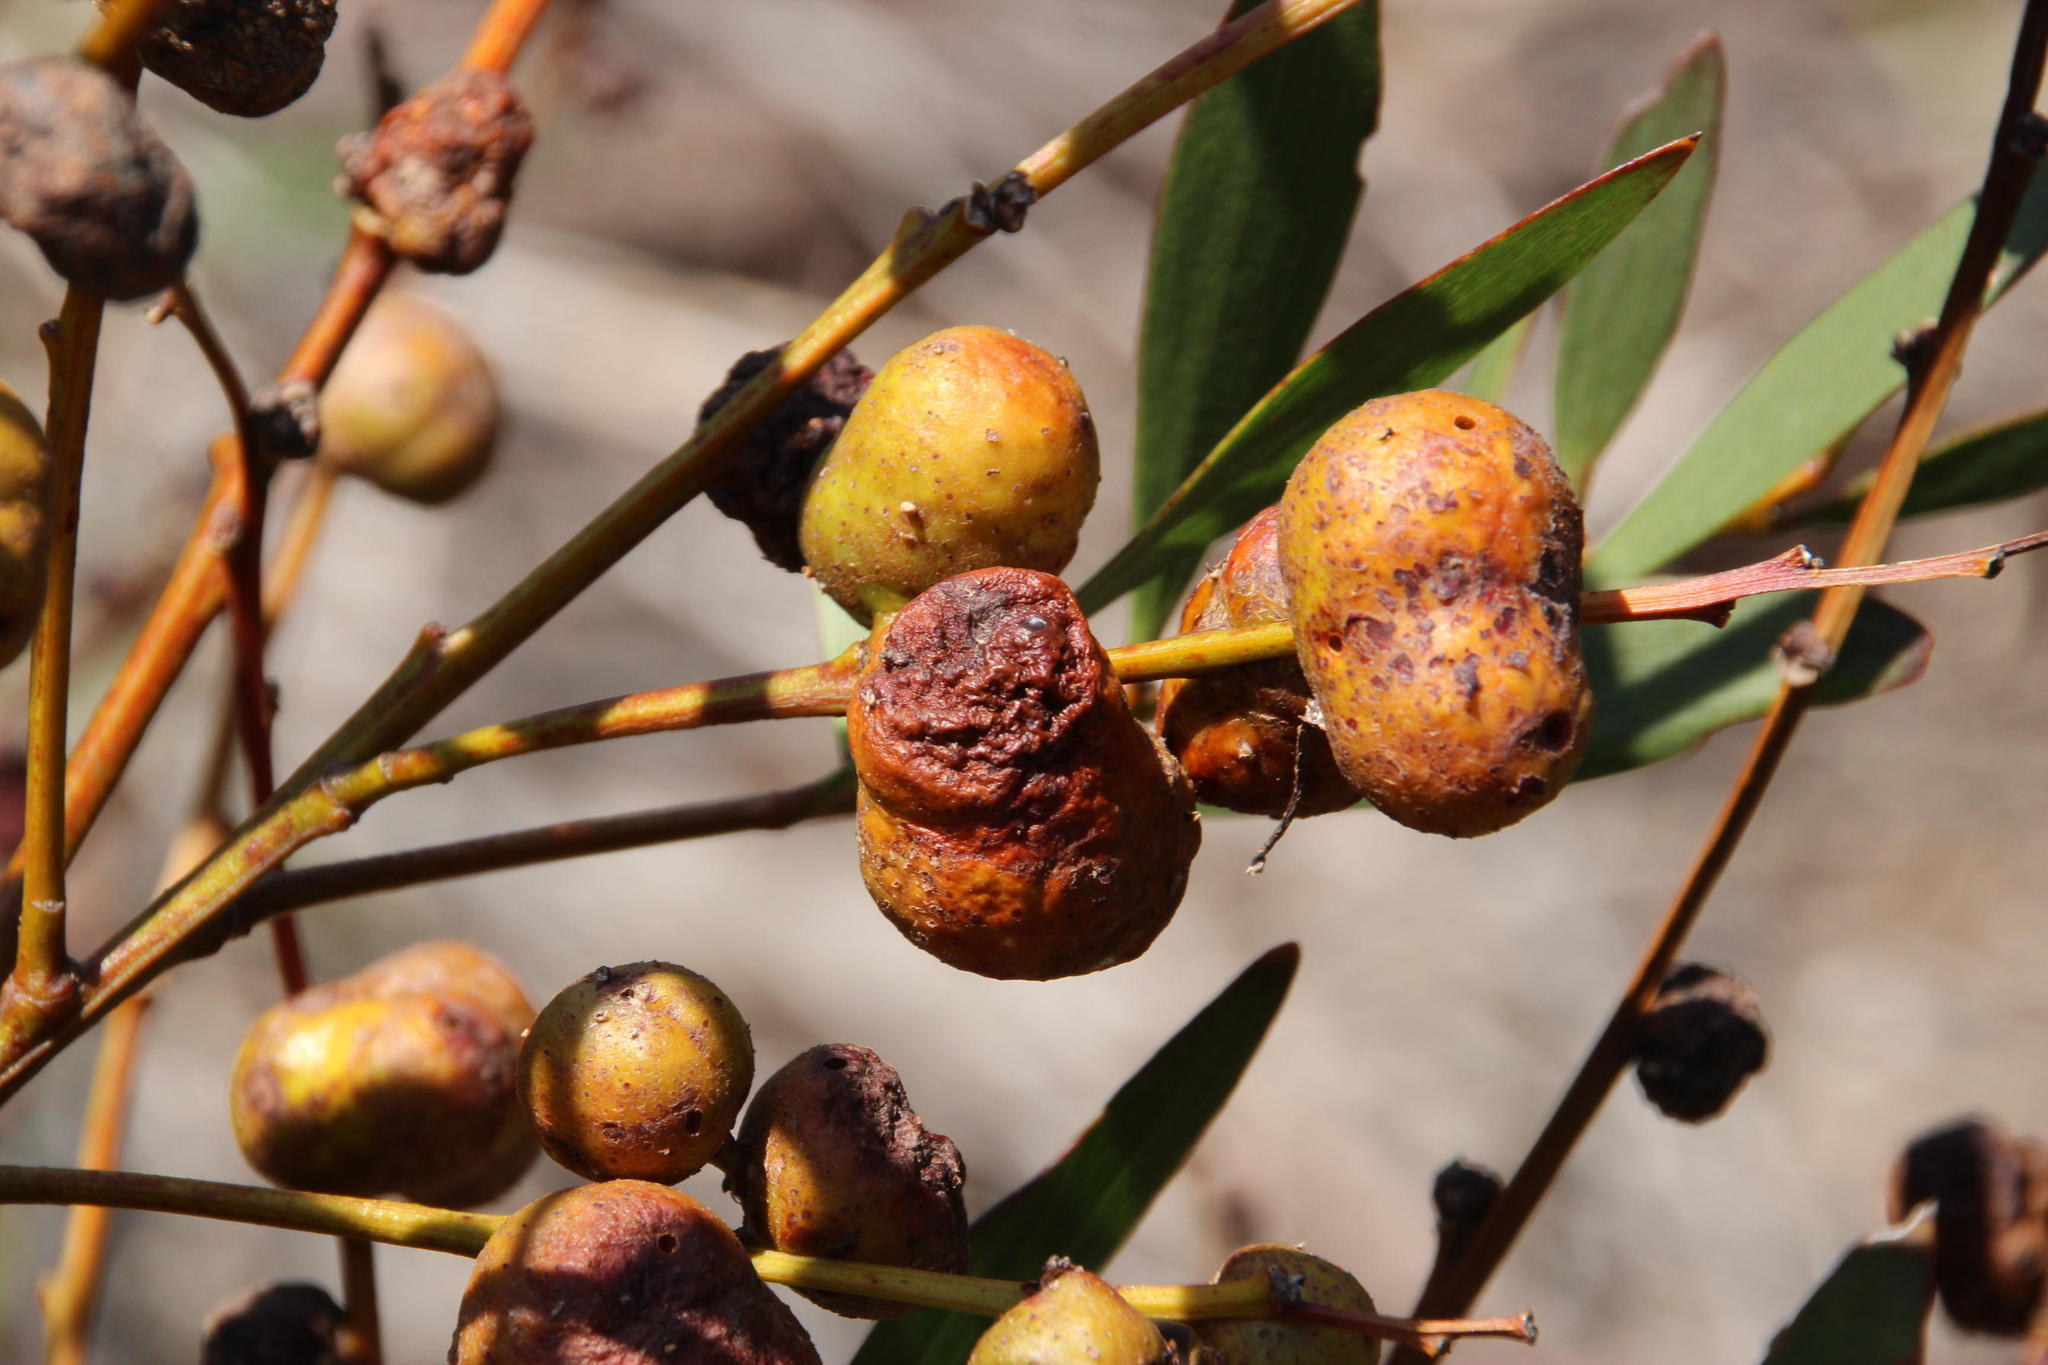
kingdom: Plantae
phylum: Tracheophyta
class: Magnoliopsida
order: Fabales
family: Fabaceae
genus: Acacia
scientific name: Acacia longifolia
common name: Sydney golden wattle
